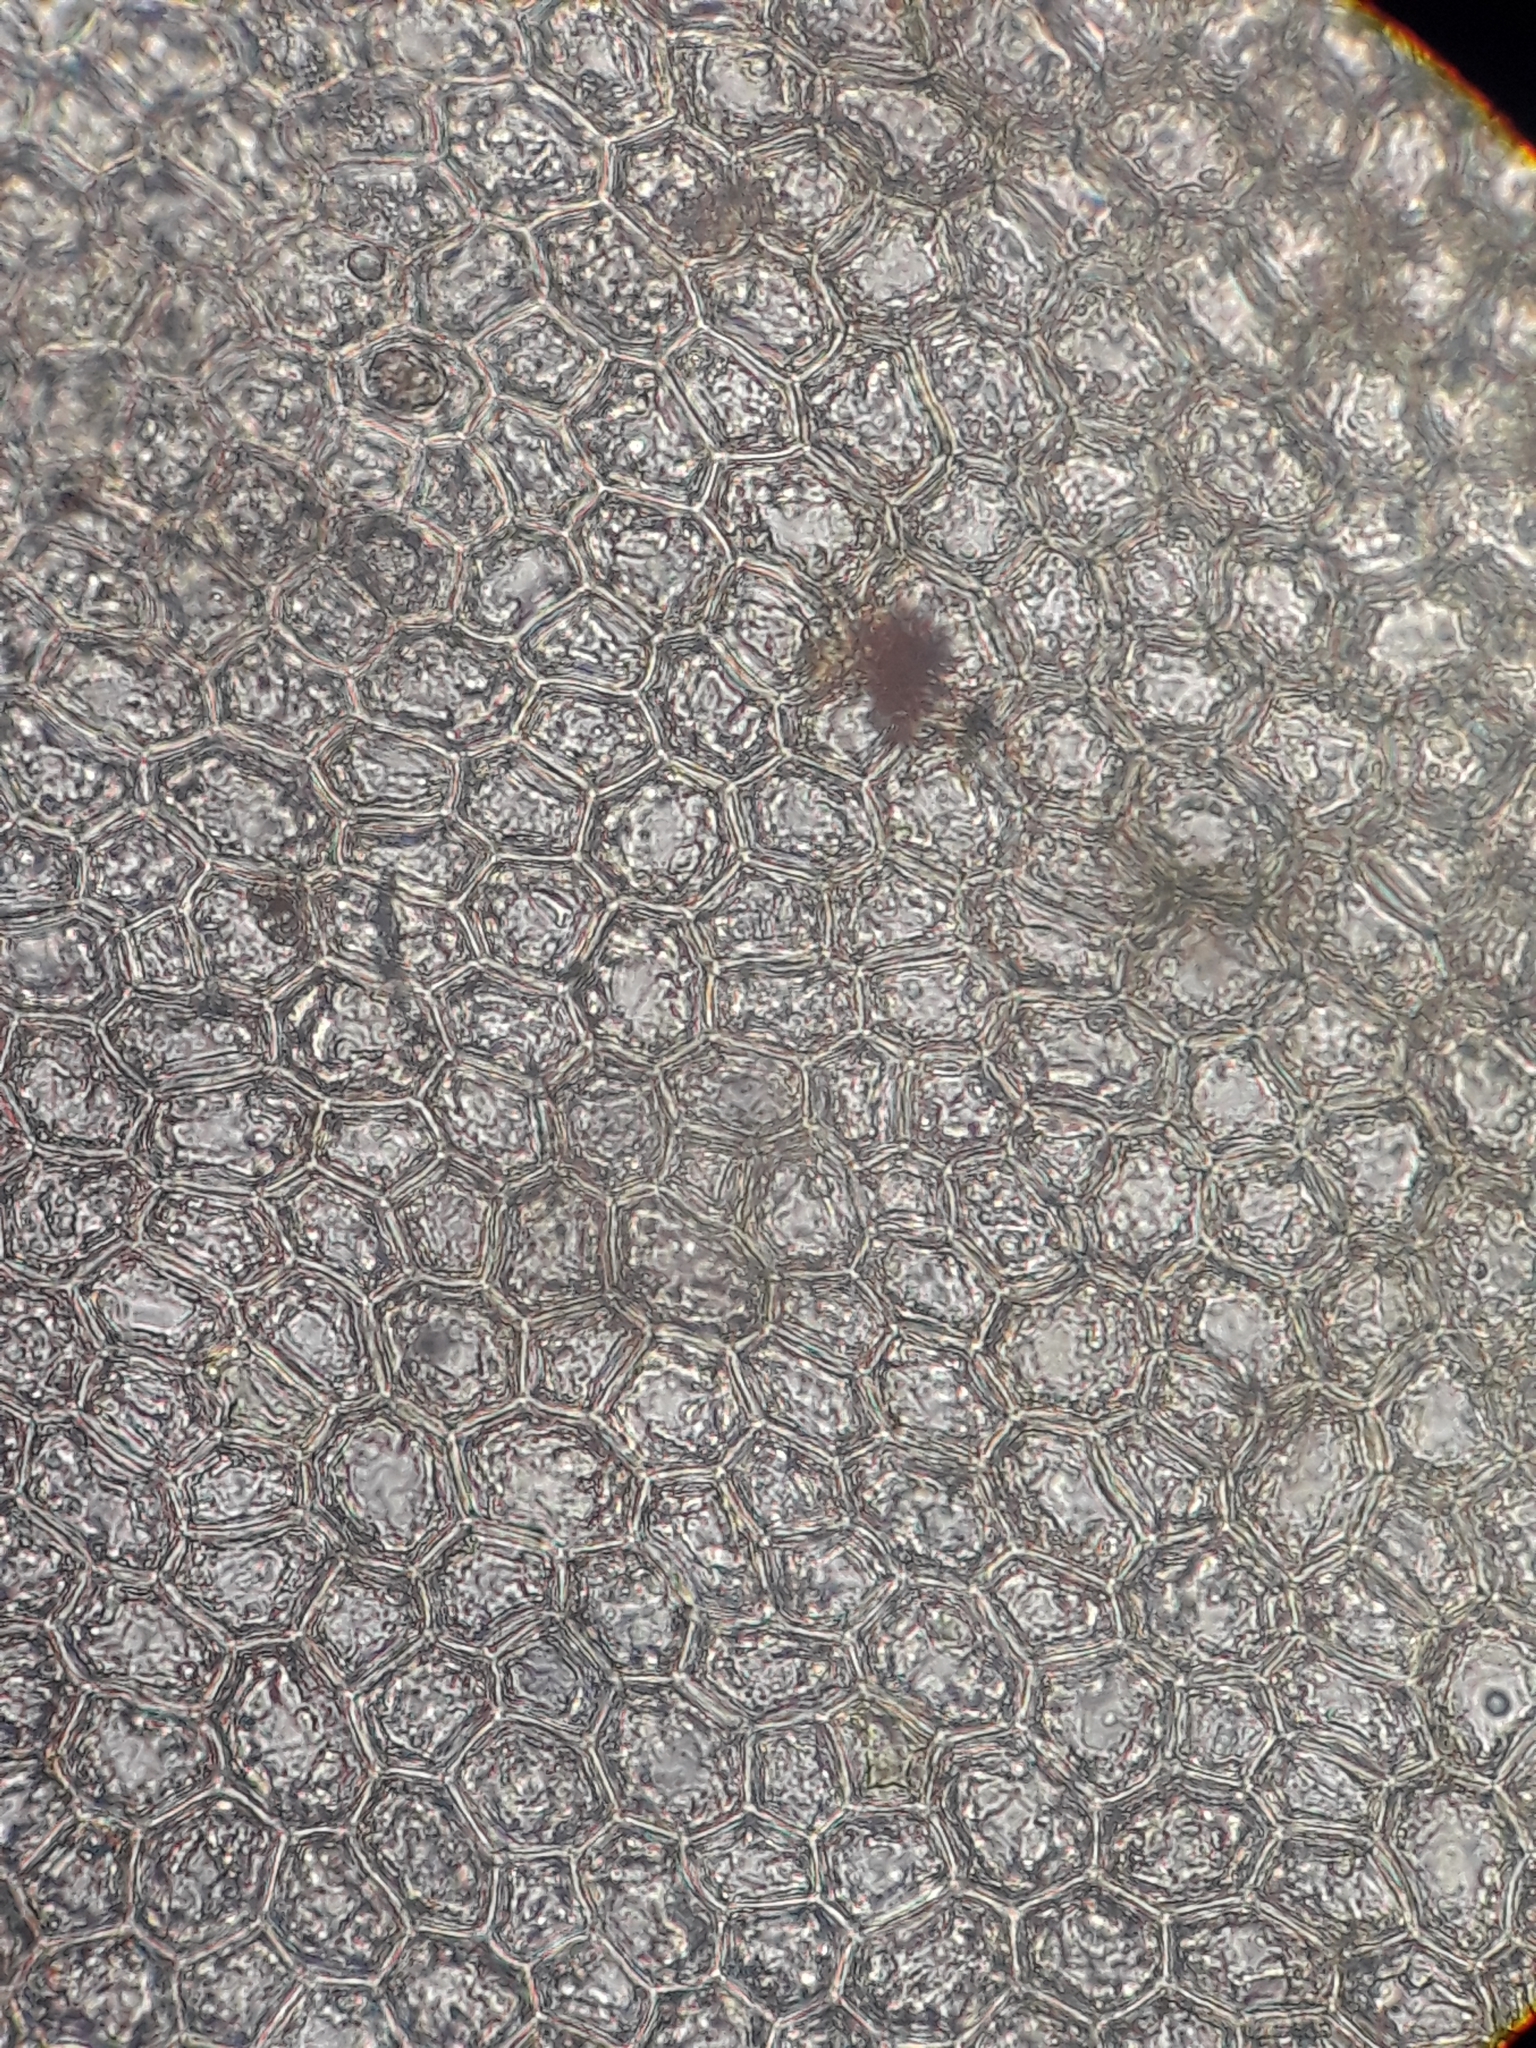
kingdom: Plantae
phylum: Marchantiophyta
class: Jungermanniopsida
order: Jungermanniales
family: Plagiochilaceae
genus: Plagiochila
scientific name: Plagiochila rutlandii
